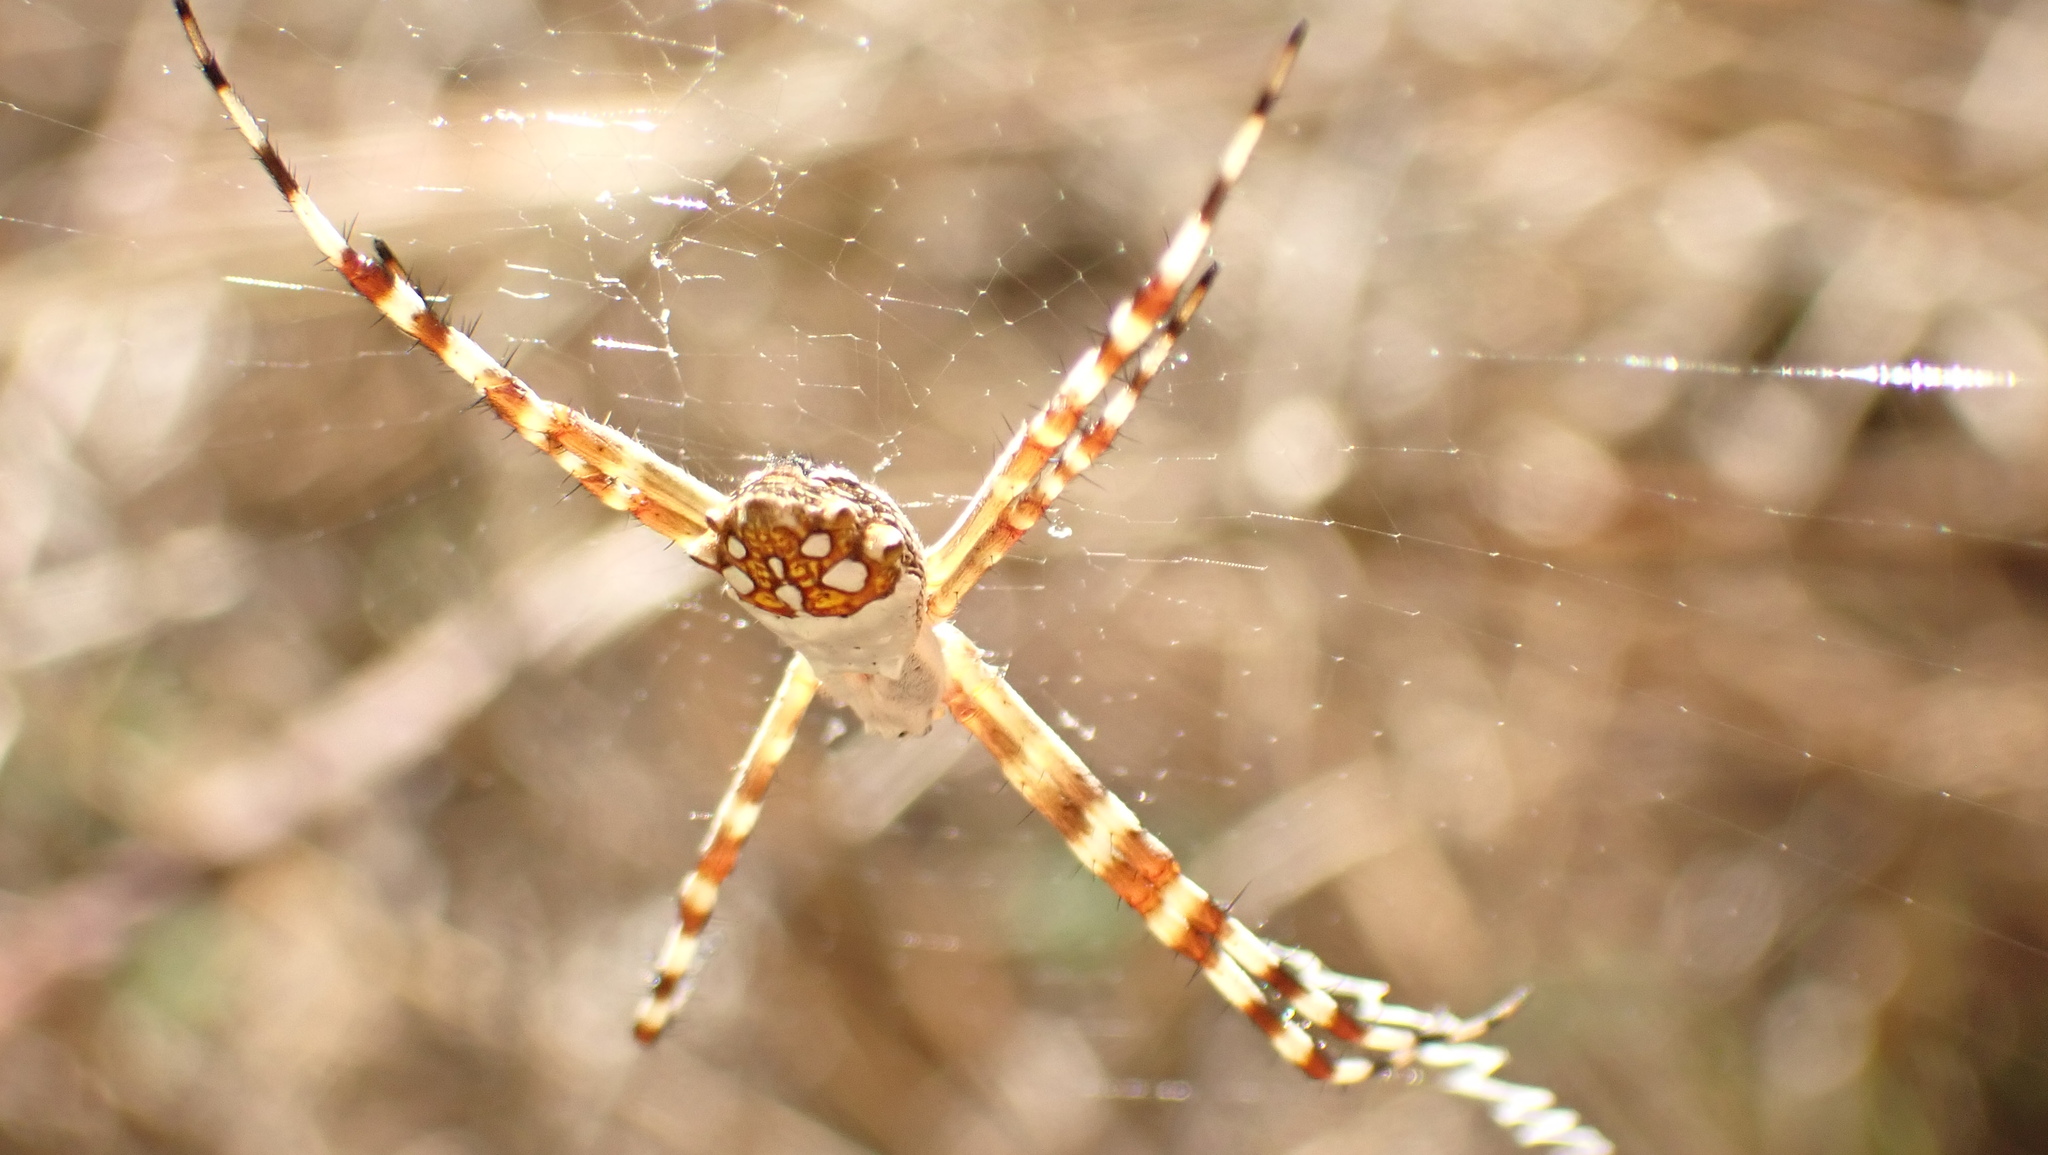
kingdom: Animalia
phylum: Arthropoda
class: Arachnida
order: Araneae
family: Araneidae
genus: Argiope
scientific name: Argiope argentata
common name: Orb weavers
